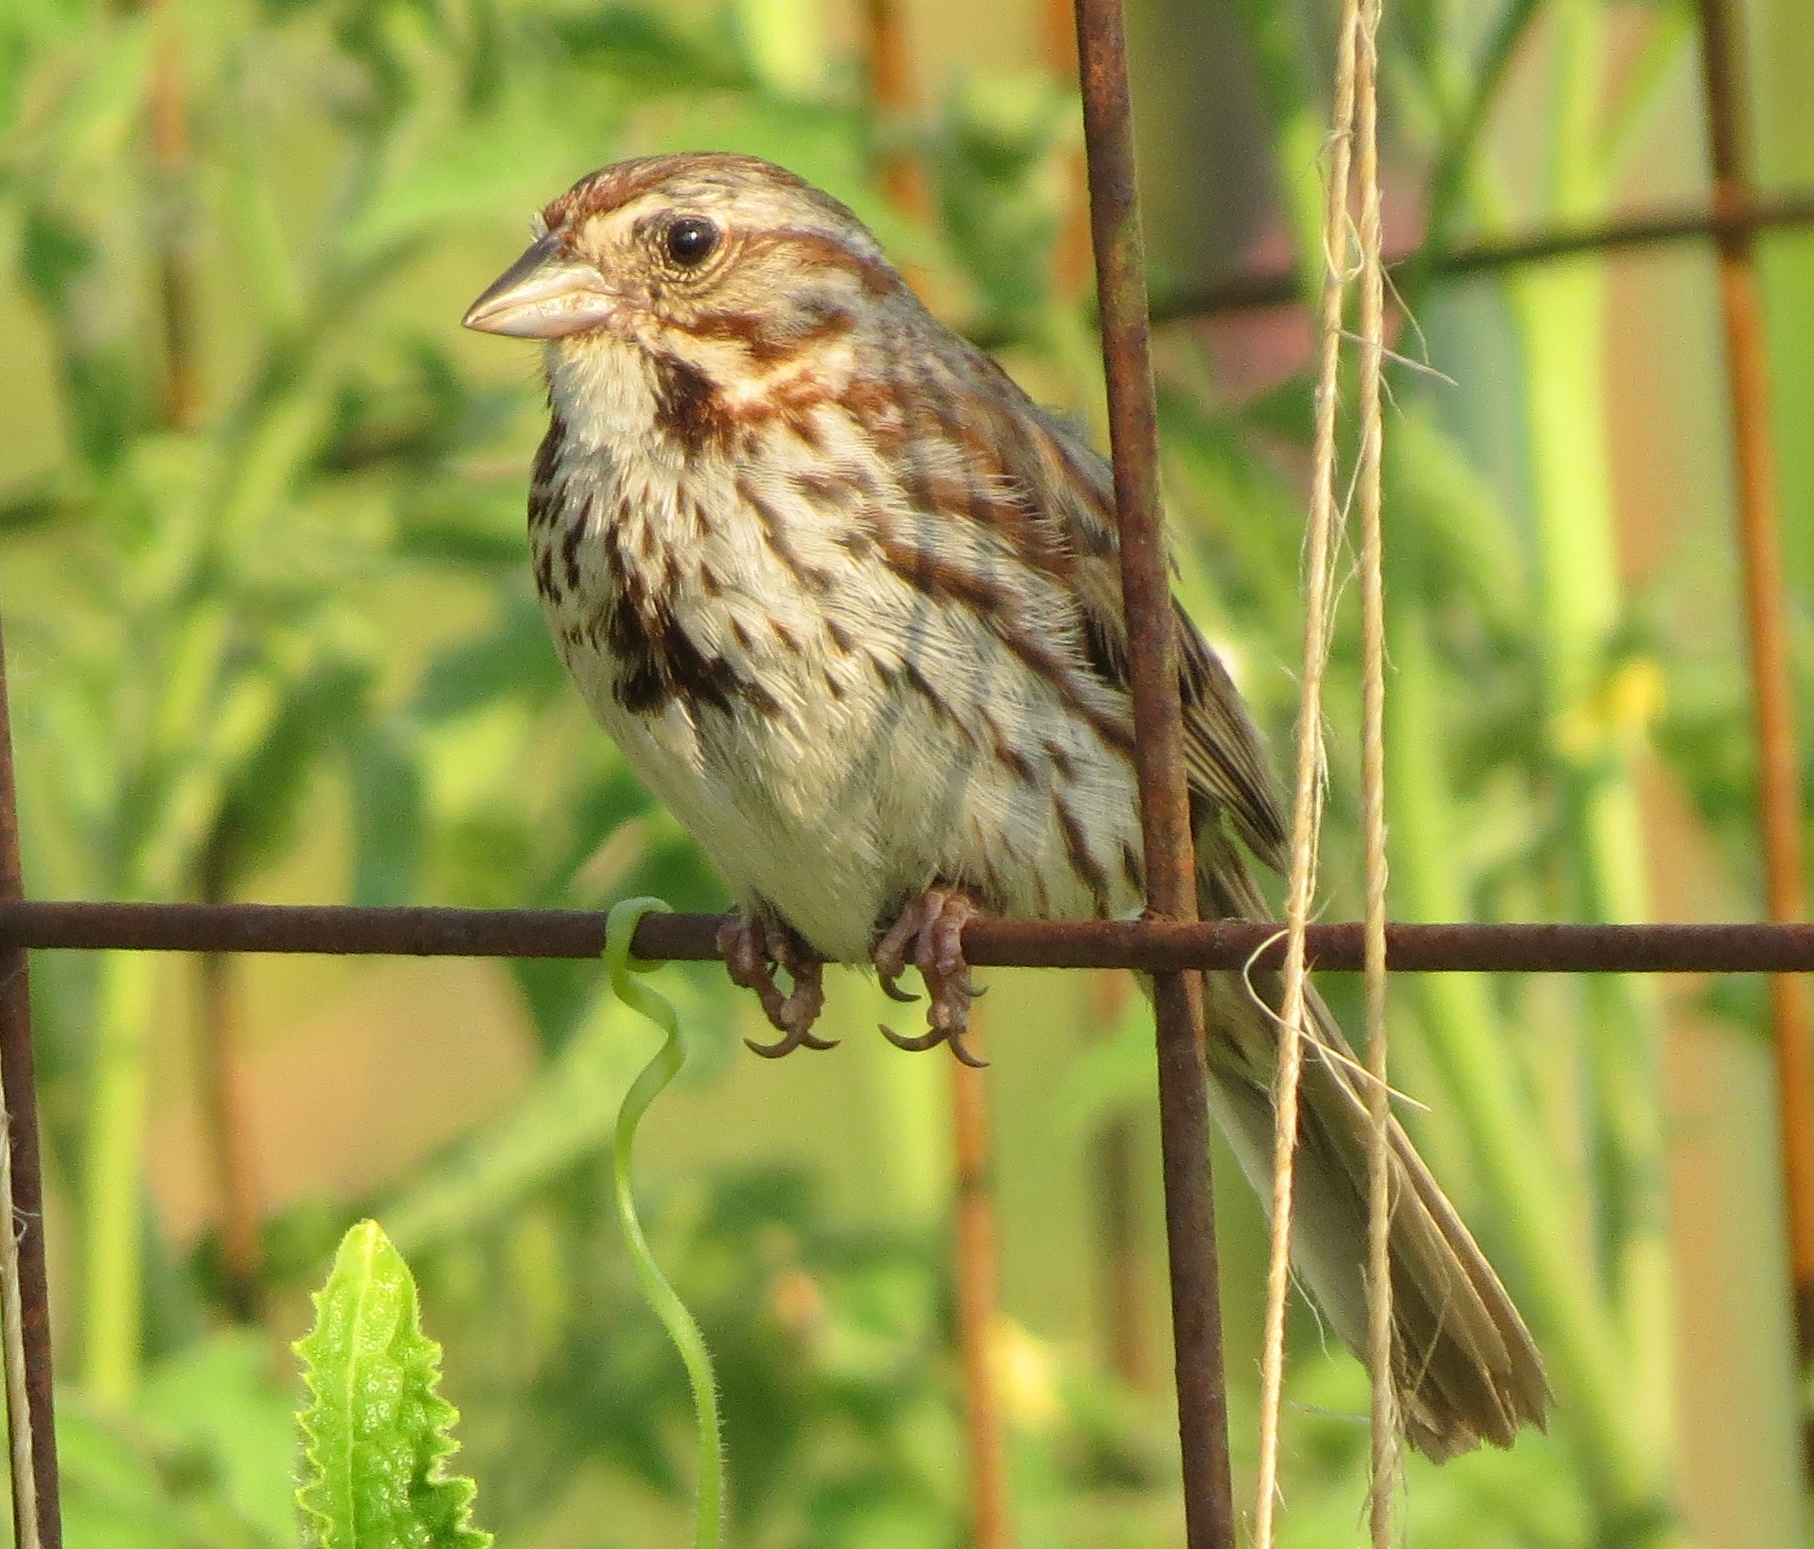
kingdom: Animalia
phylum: Chordata
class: Aves
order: Passeriformes
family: Passerellidae
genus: Melospiza
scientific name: Melospiza melodia
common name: Song sparrow
